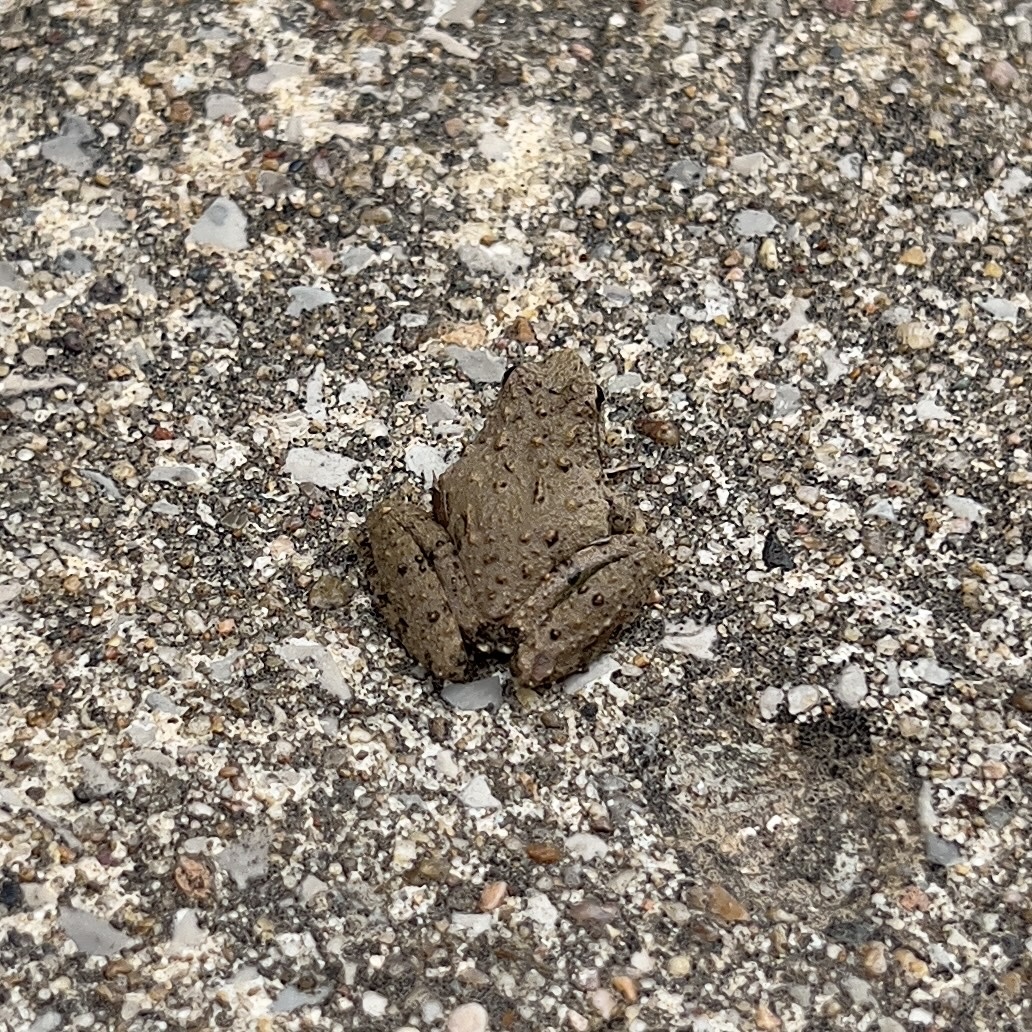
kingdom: Animalia
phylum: Chordata
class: Amphibia
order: Anura
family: Hylidae
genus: Acris
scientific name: Acris blanchardi
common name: Blanchard's cricket frog
